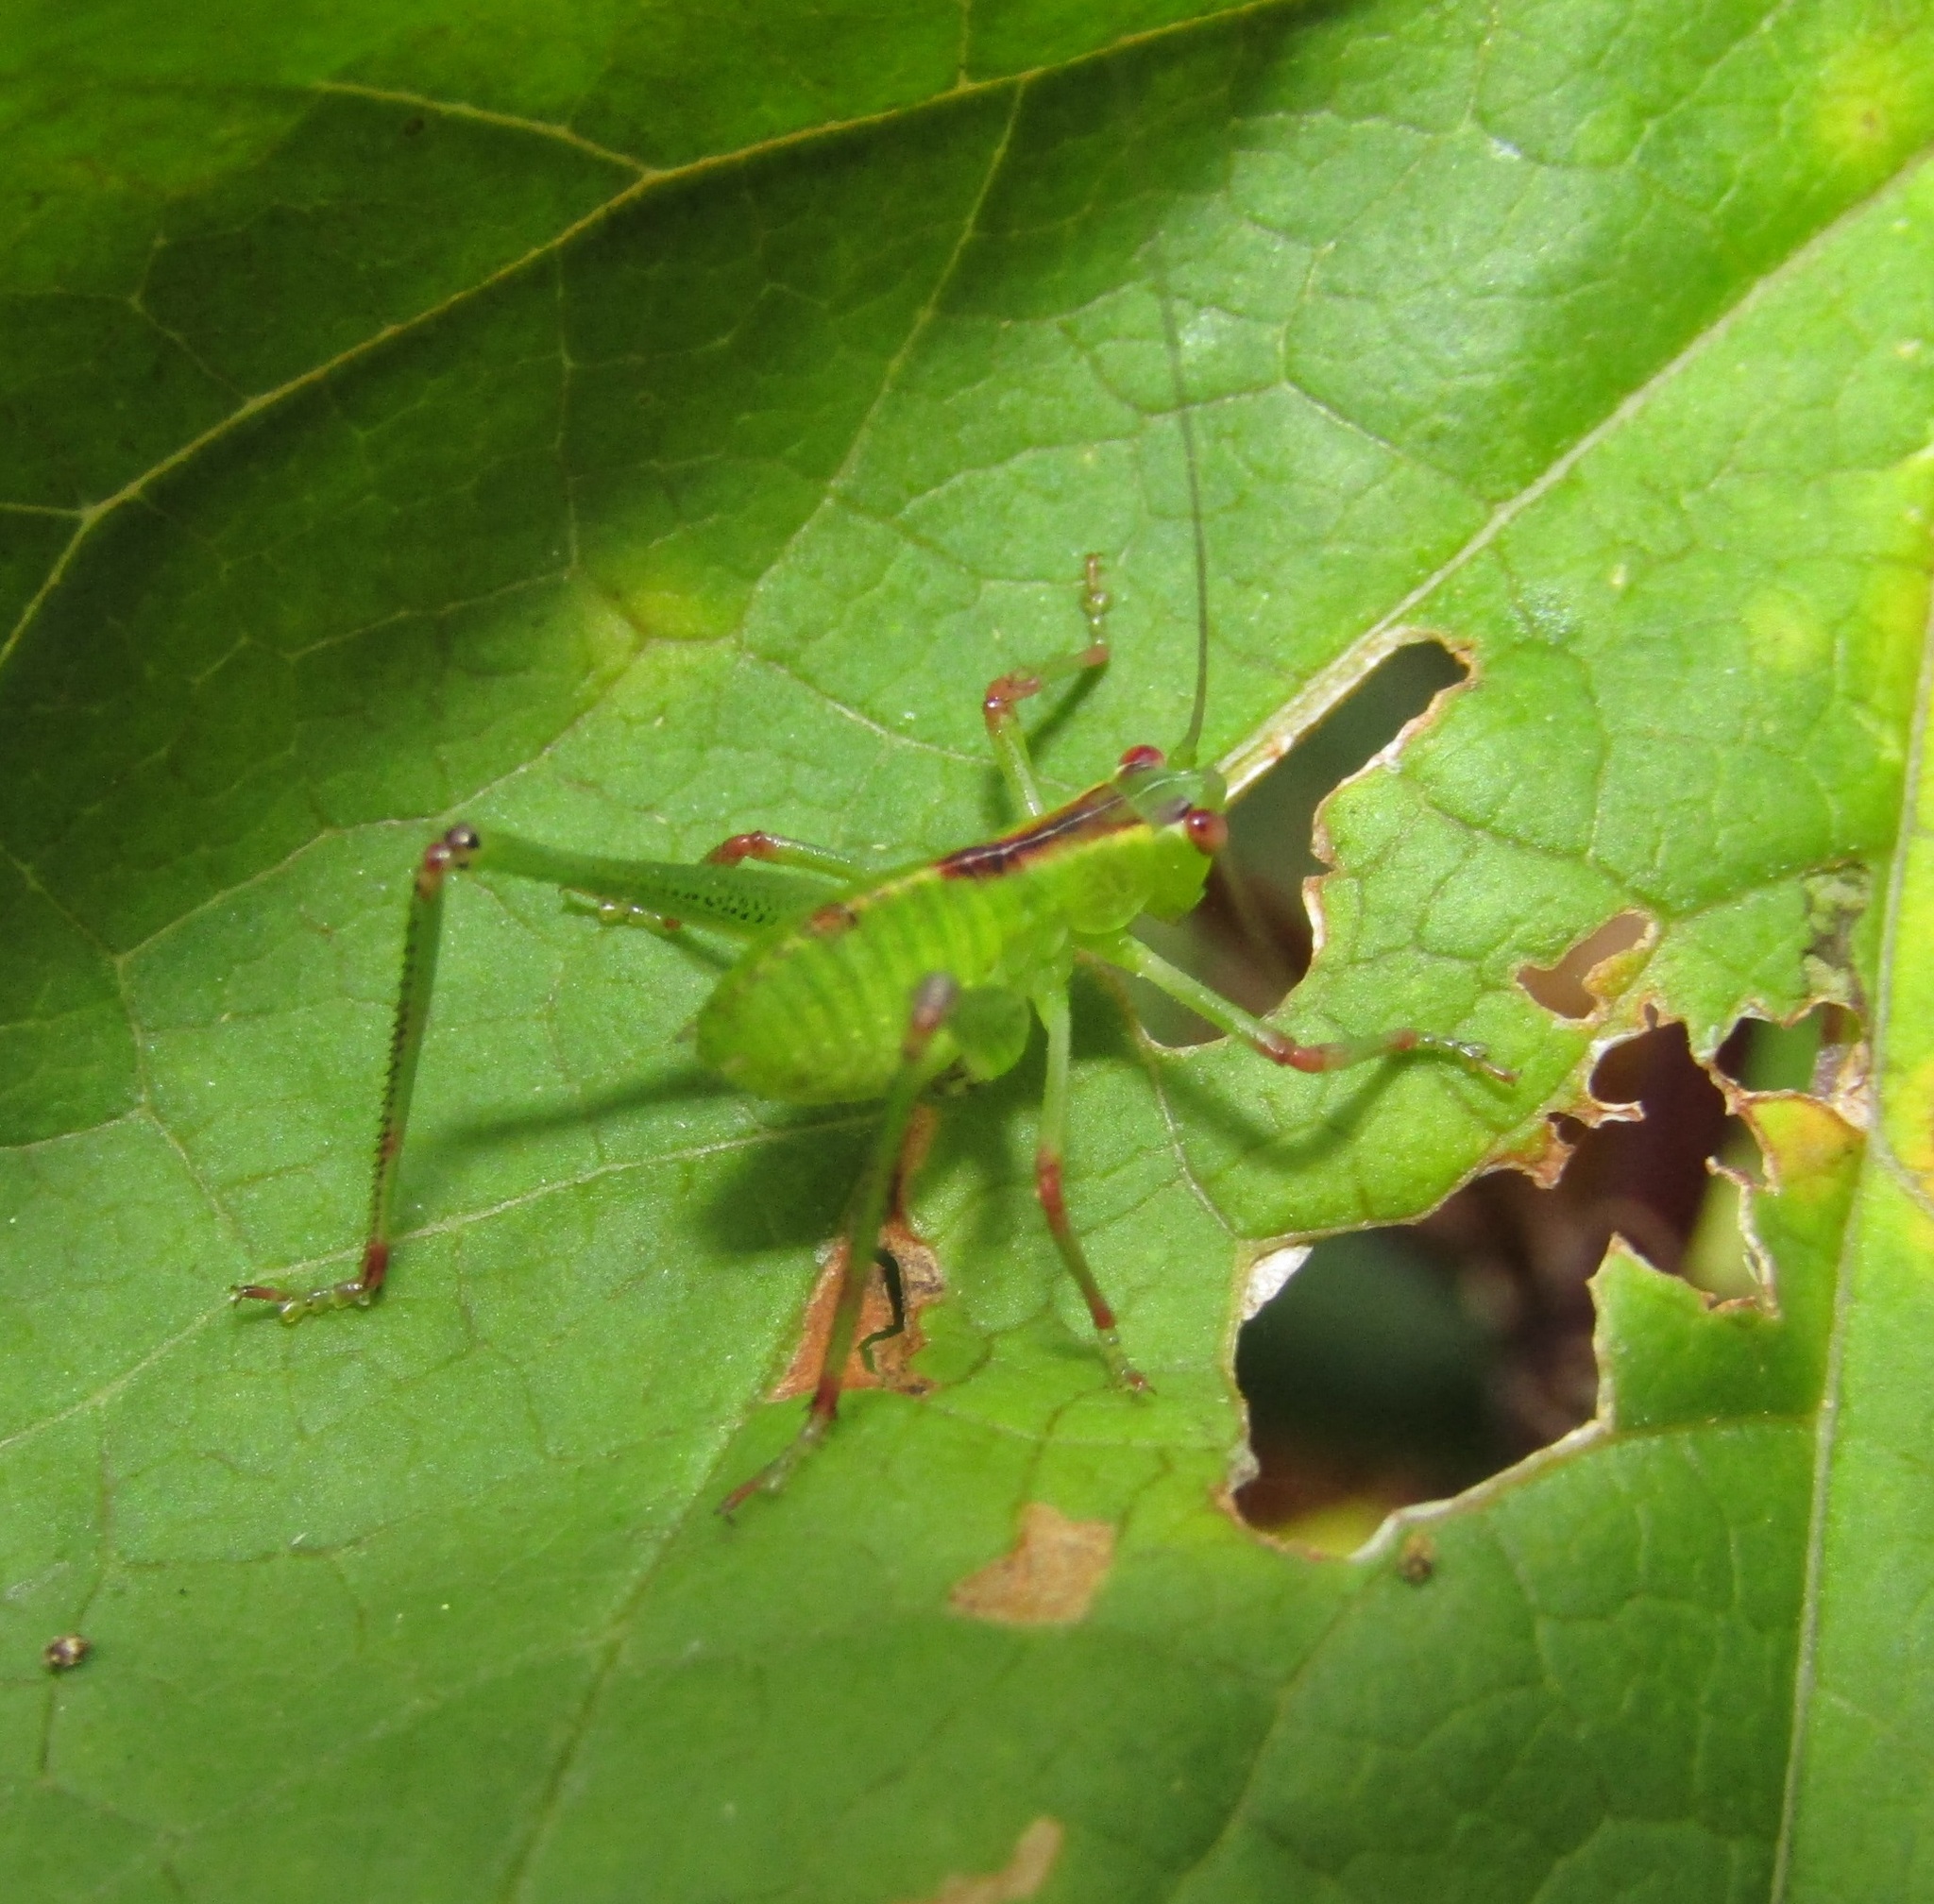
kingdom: Animalia
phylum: Arthropoda
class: Insecta
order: Orthoptera
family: Tettigoniidae
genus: Caedicia
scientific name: Caedicia simplex
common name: Common garden katydid
